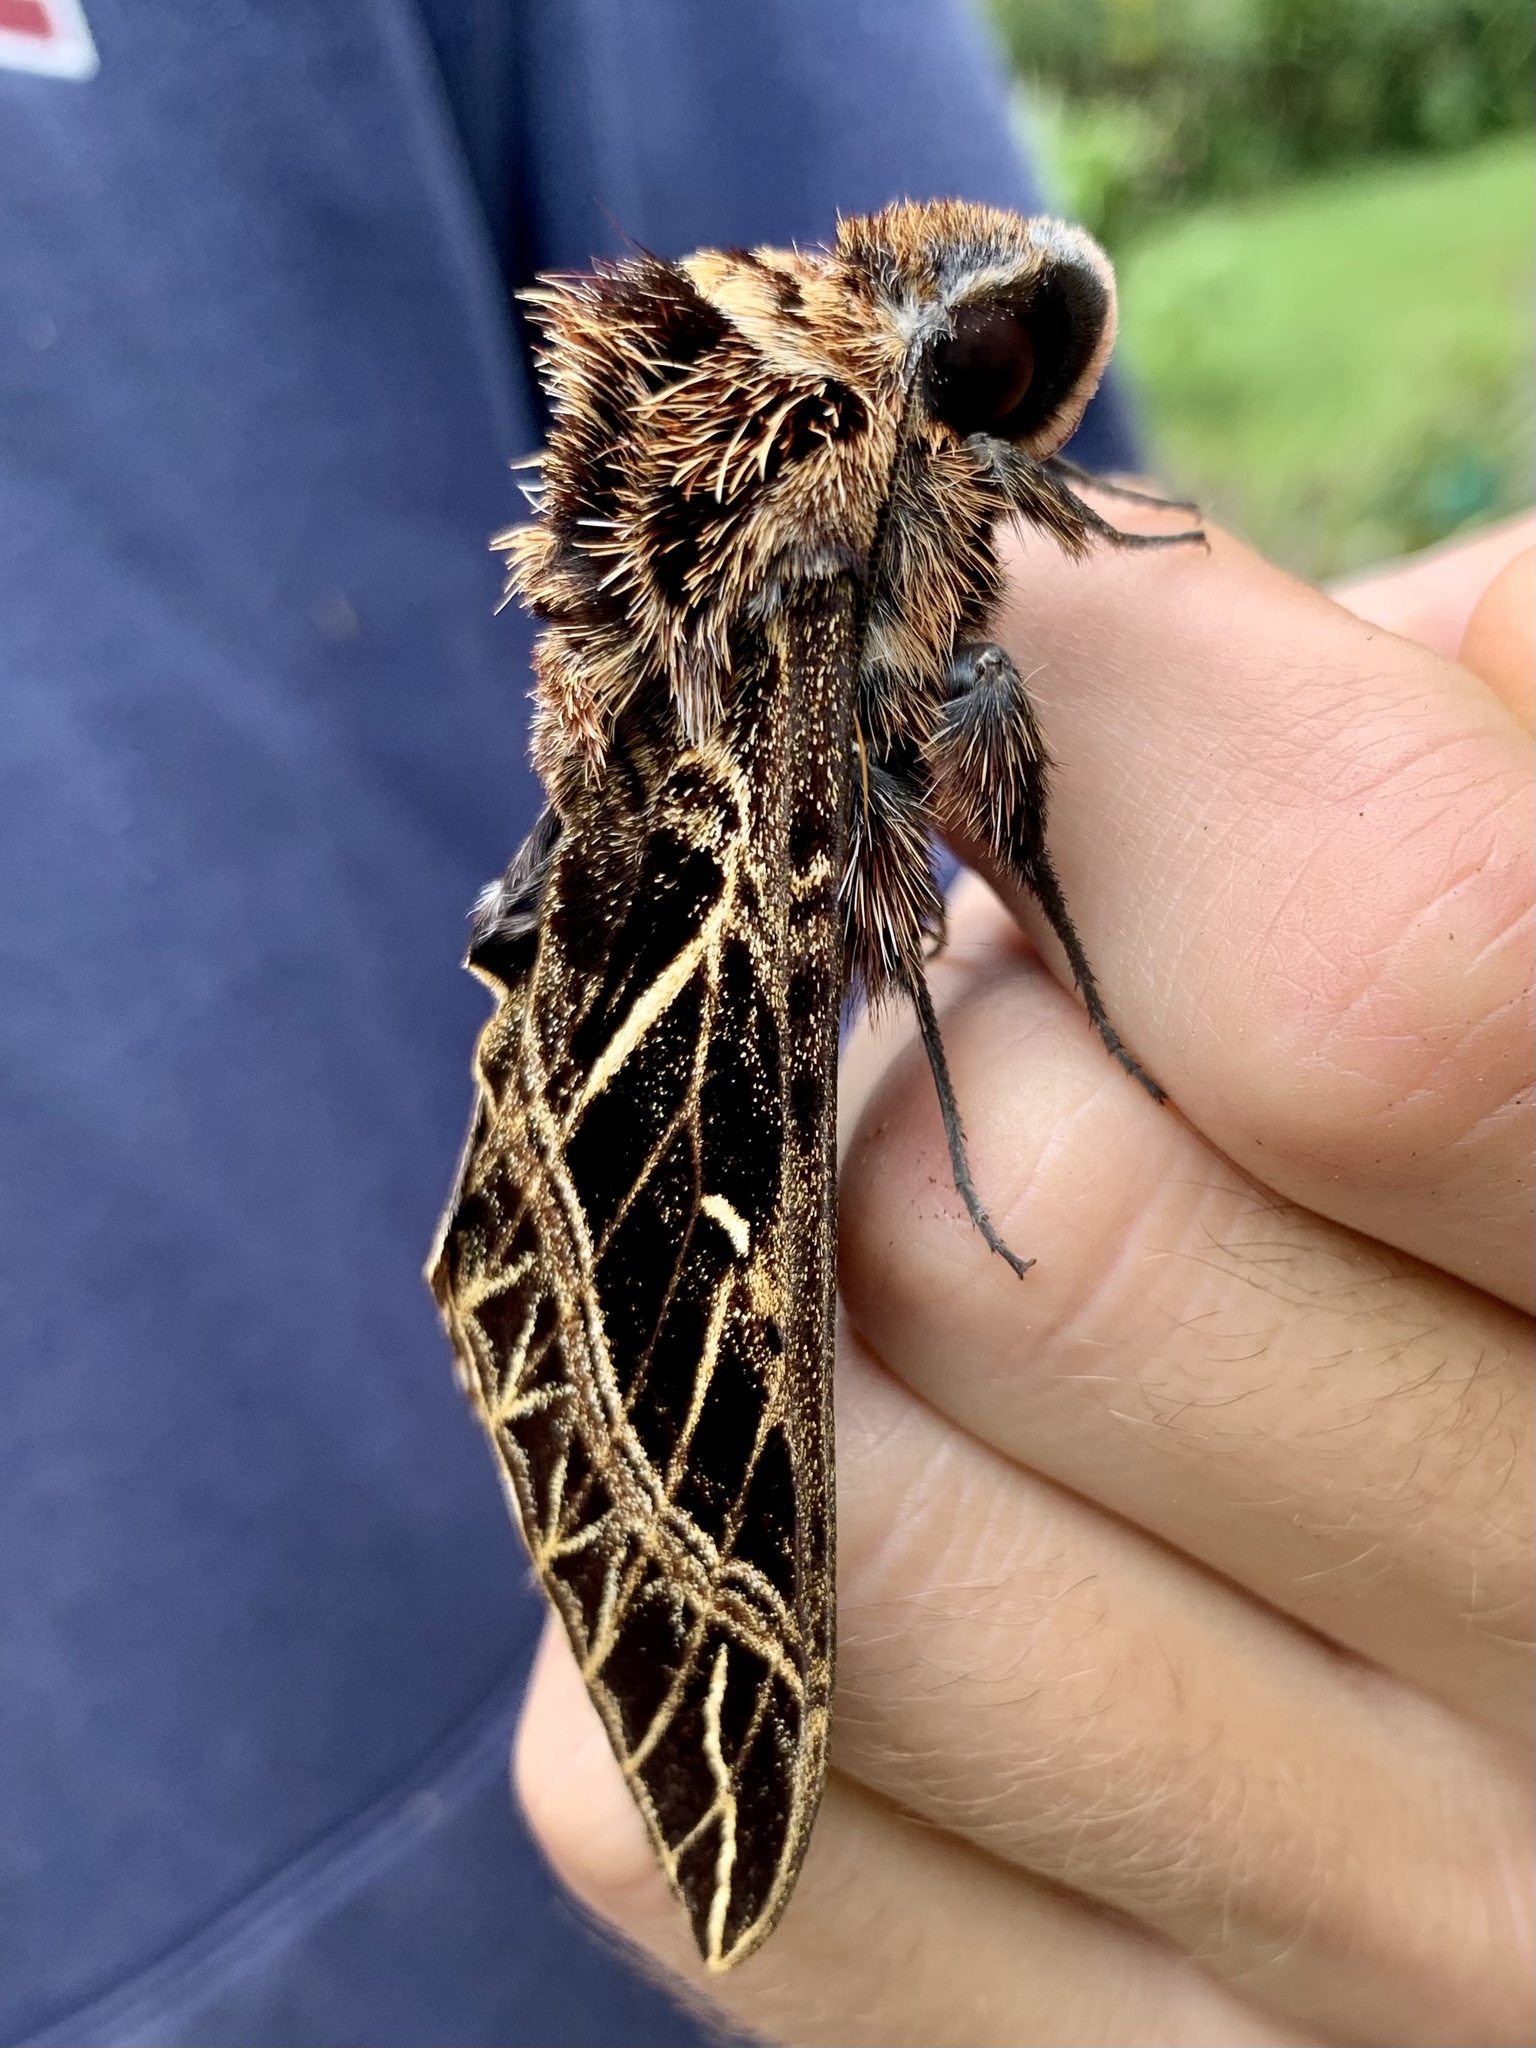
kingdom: Animalia
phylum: Arthropoda
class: Insecta
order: Lepidoptera
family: Sphingidae
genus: Euryglottis
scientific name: Euryglottis aper
